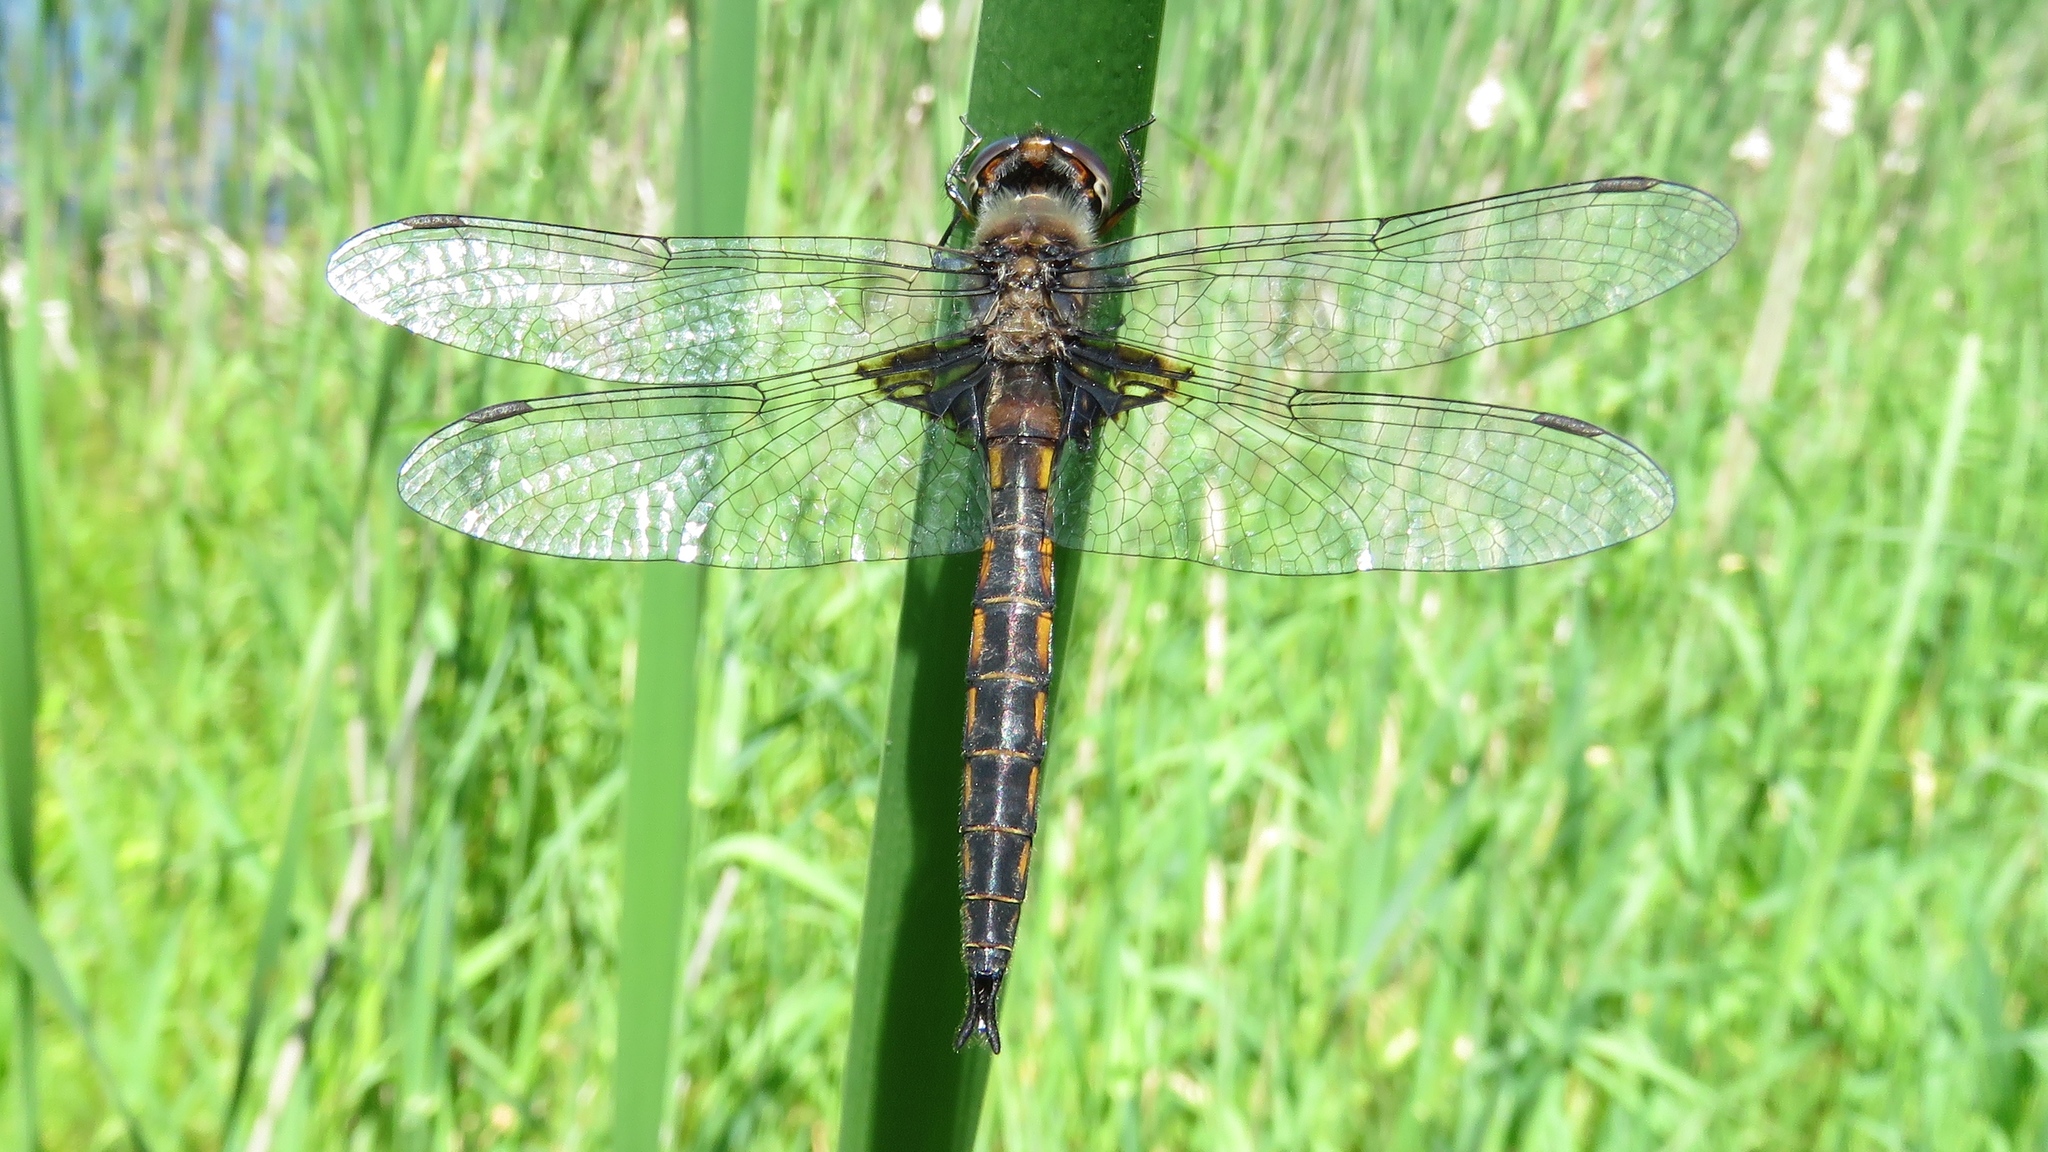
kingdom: Animalia
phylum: Arthropoda
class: Insecta
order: Odonata
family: Corduliidae
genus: Epitheca
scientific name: Epitheca cynosura
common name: Common baskettail
